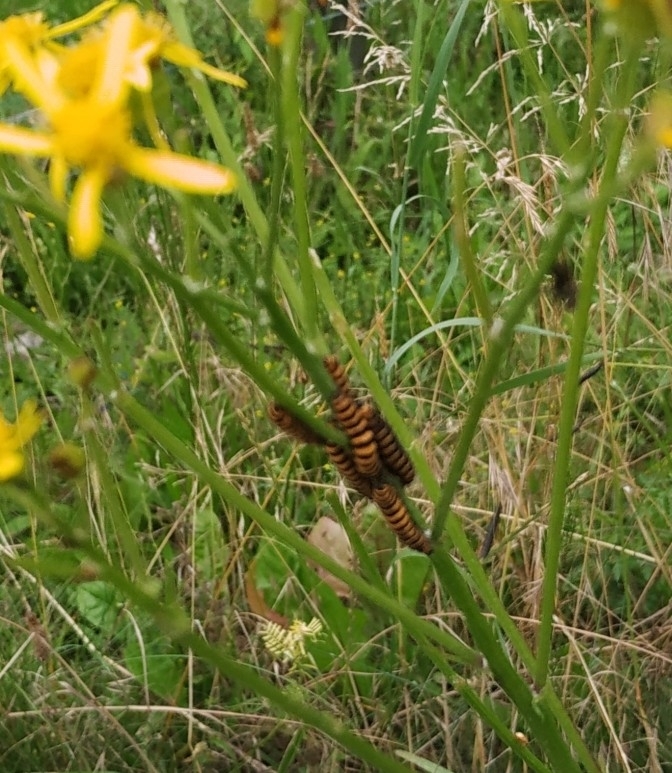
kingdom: Animalia
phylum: Arthropoda
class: Insecta
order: Lepidoptera
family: Erebidae
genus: Tyria
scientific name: Tyria jacobaeae
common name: Cinnabar
